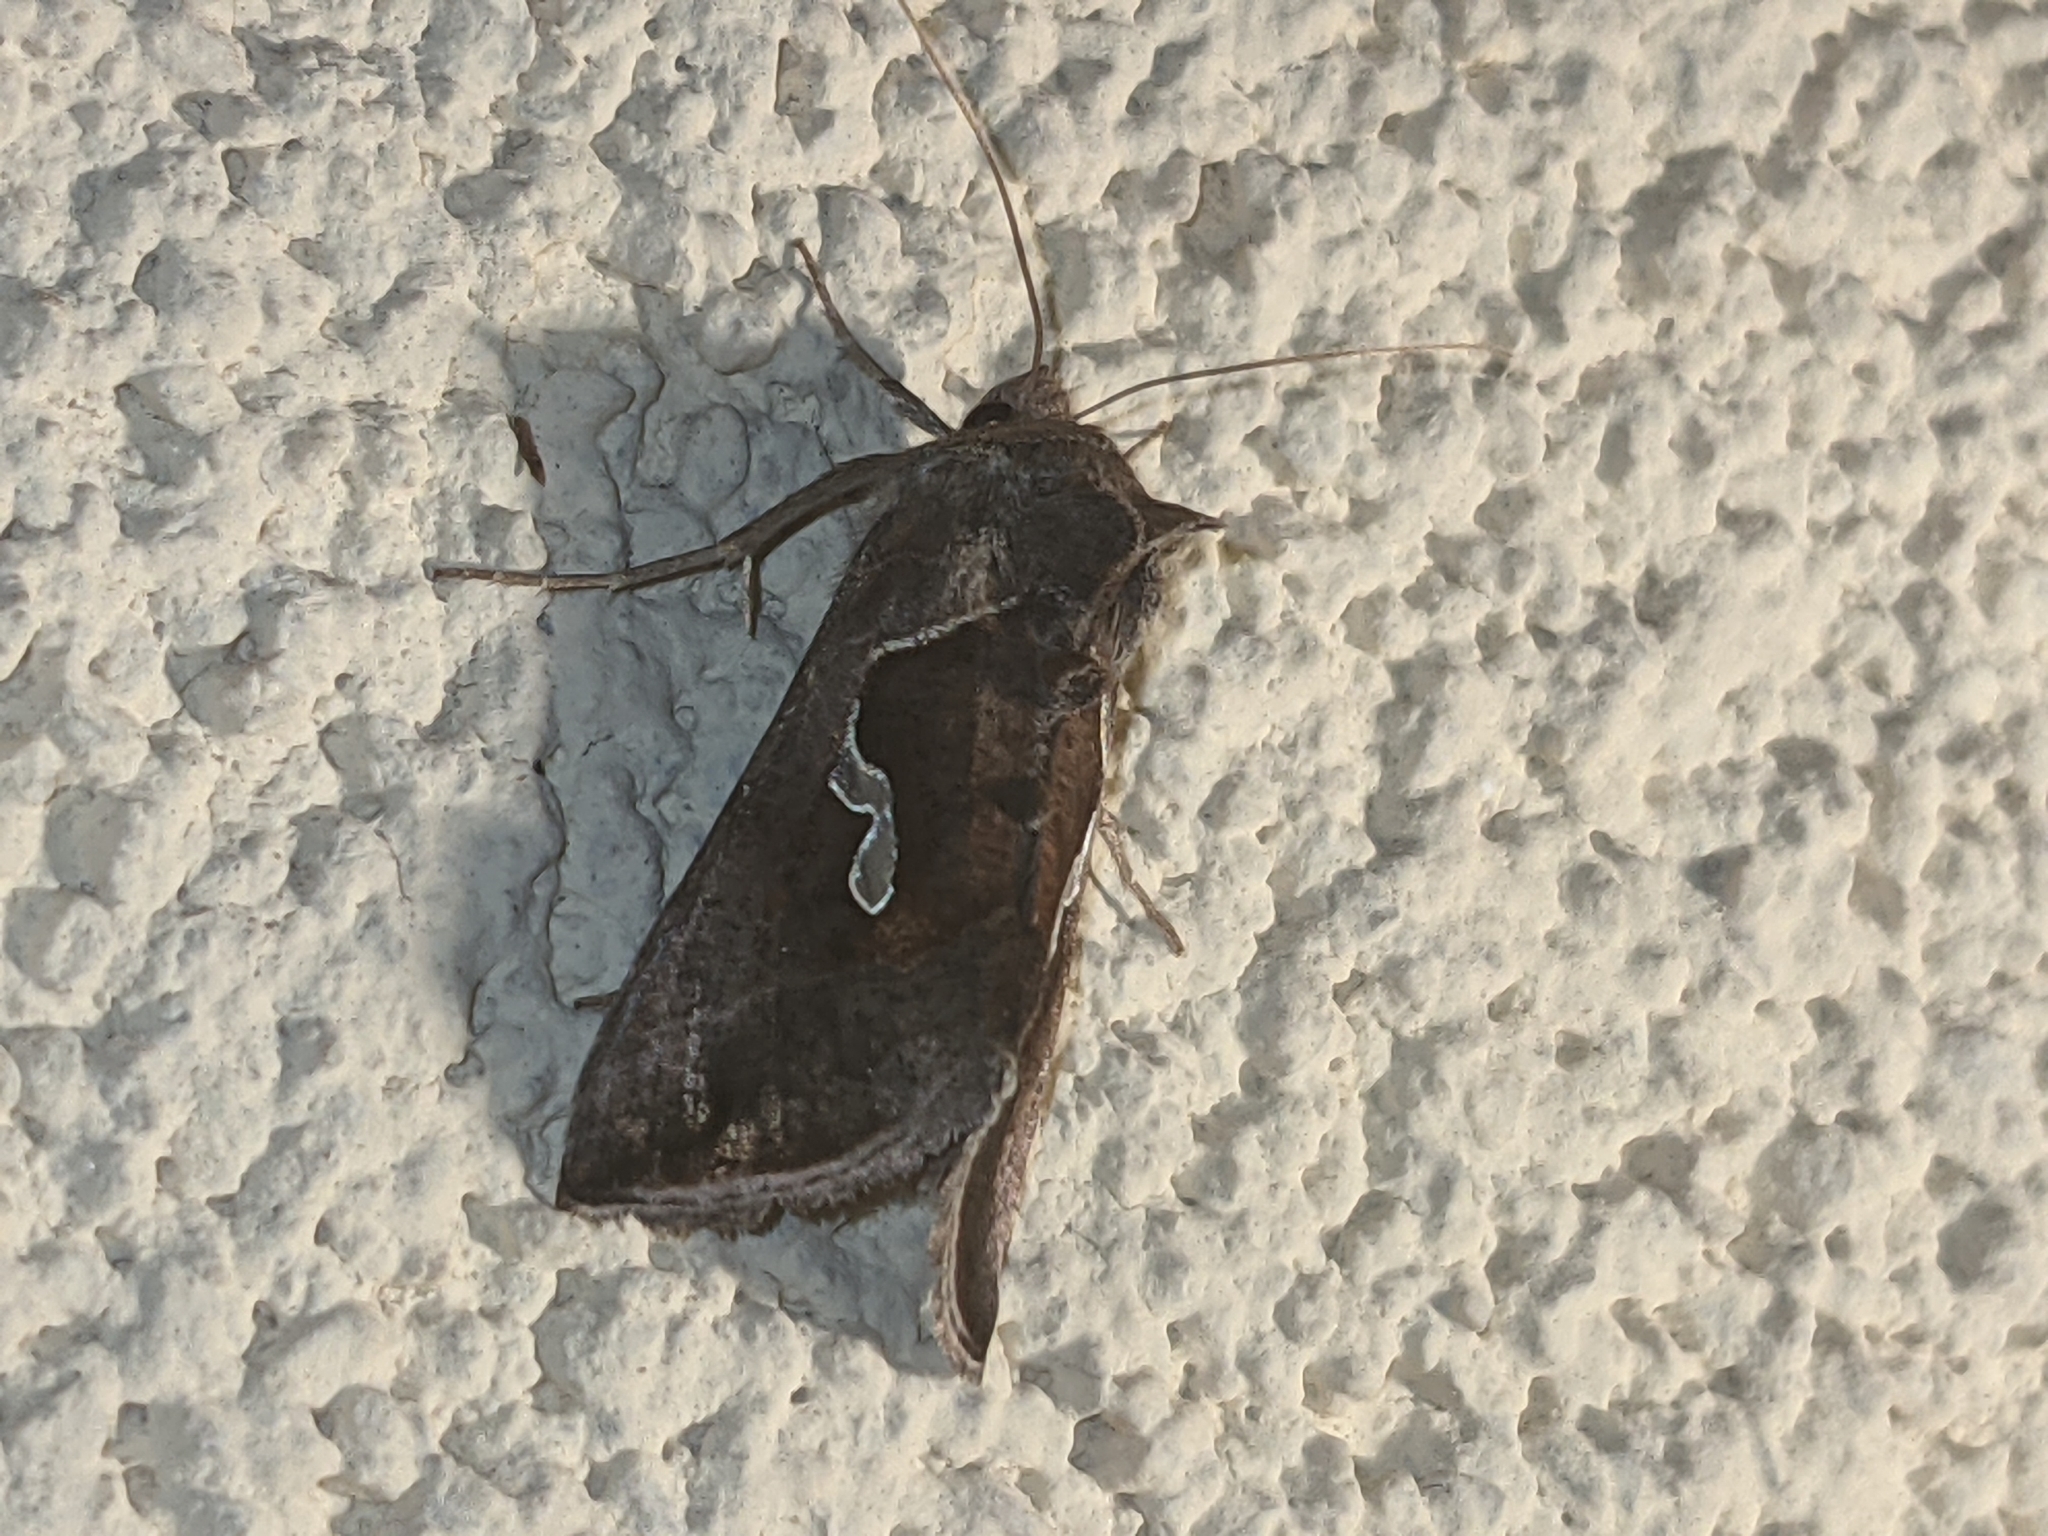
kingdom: Animalia
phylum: Arthropoda
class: Insecta
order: Lepidoptera
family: Noctuidae
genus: Macdunnoughia
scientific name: Macdunnoughia confusa
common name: Dewick's plusia
